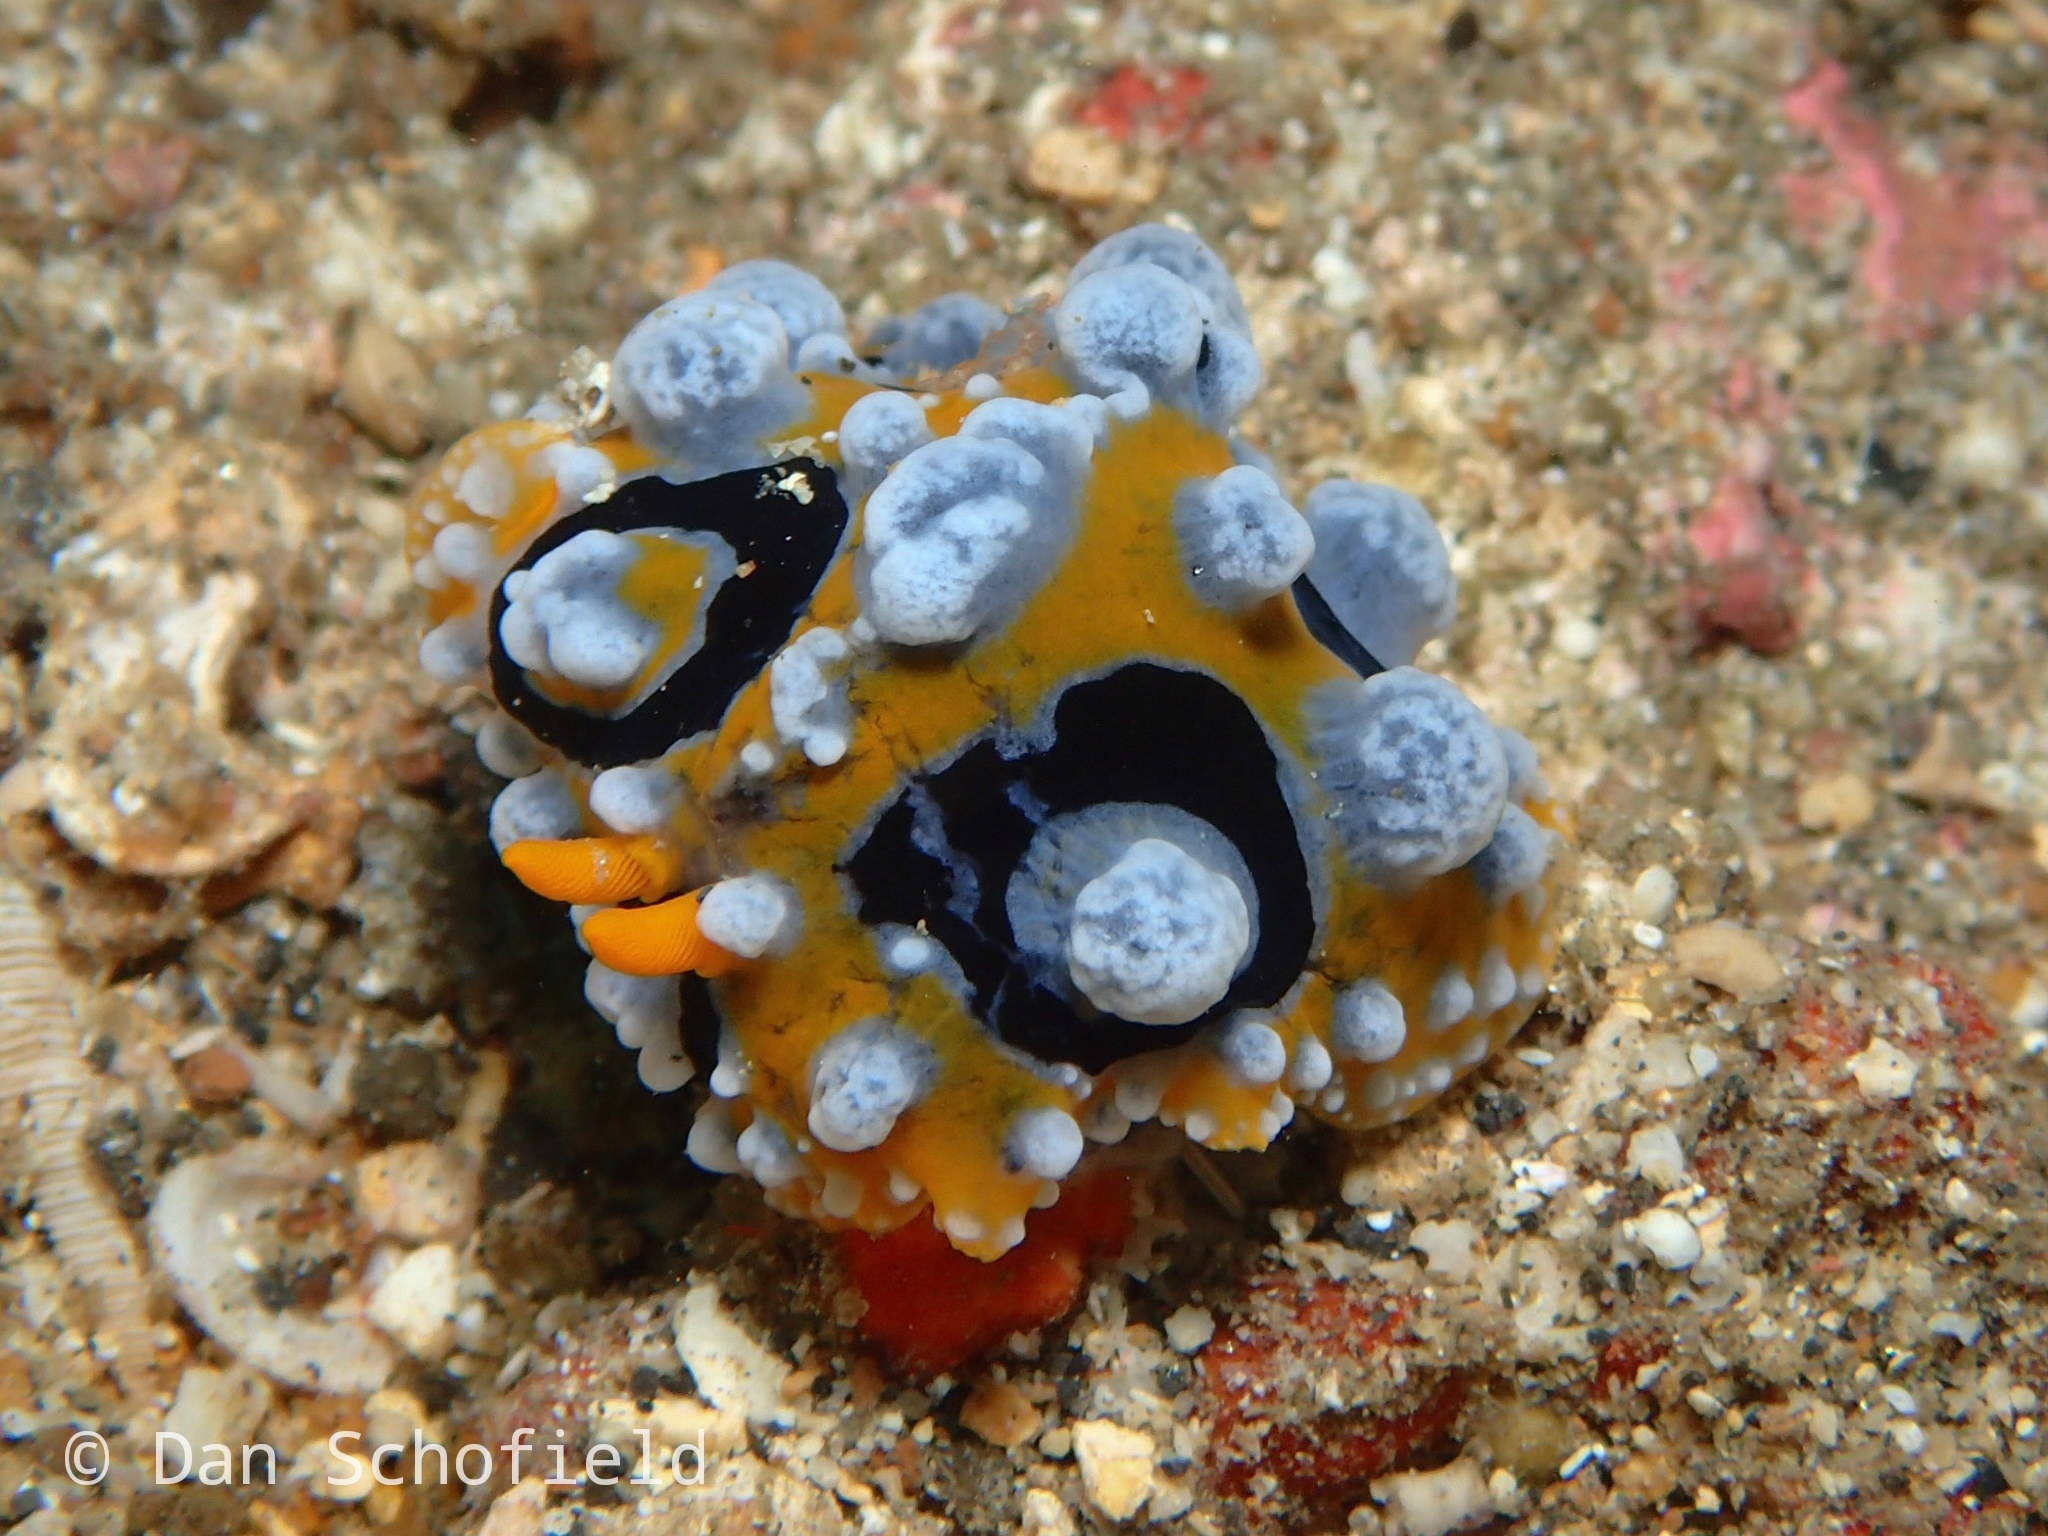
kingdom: Animalia
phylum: Mollusca
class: Gastropoda
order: Nudibranchia
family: Phyllidiidae
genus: Phyllidia
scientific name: Phyllidia ocellata
